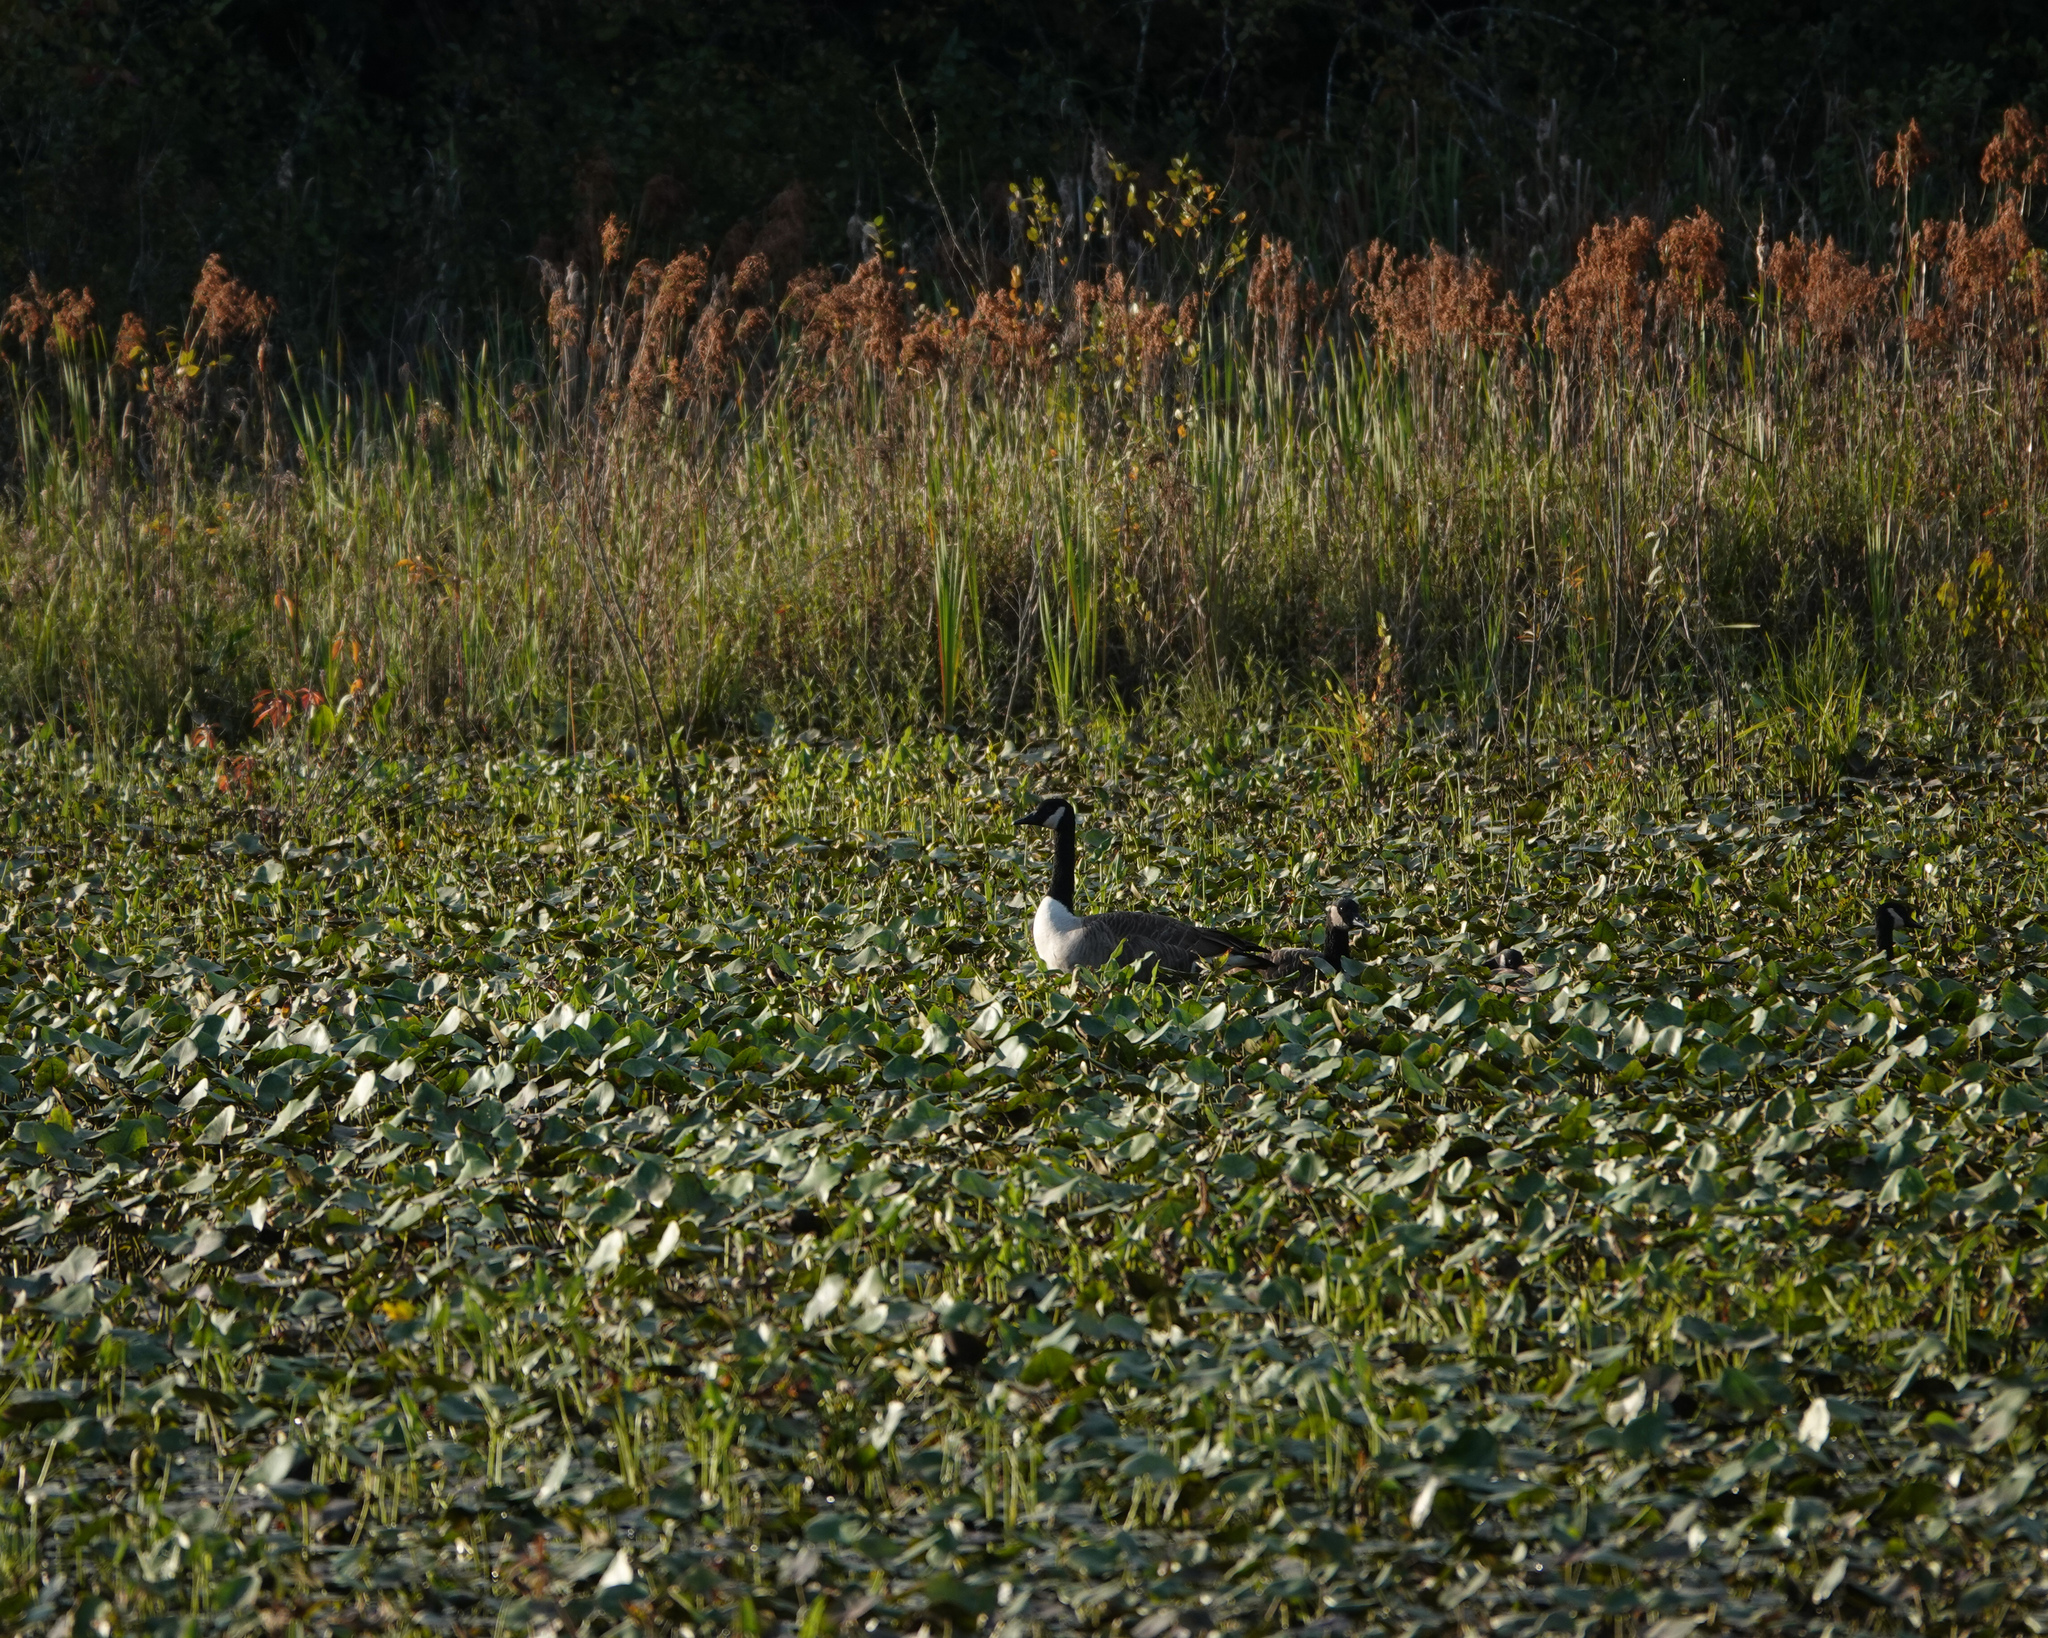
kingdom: Animalia
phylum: Chordata
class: Aves
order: Anseriformes
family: Anatidae
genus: Branta
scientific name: Branta canadensis
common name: Canada goose
